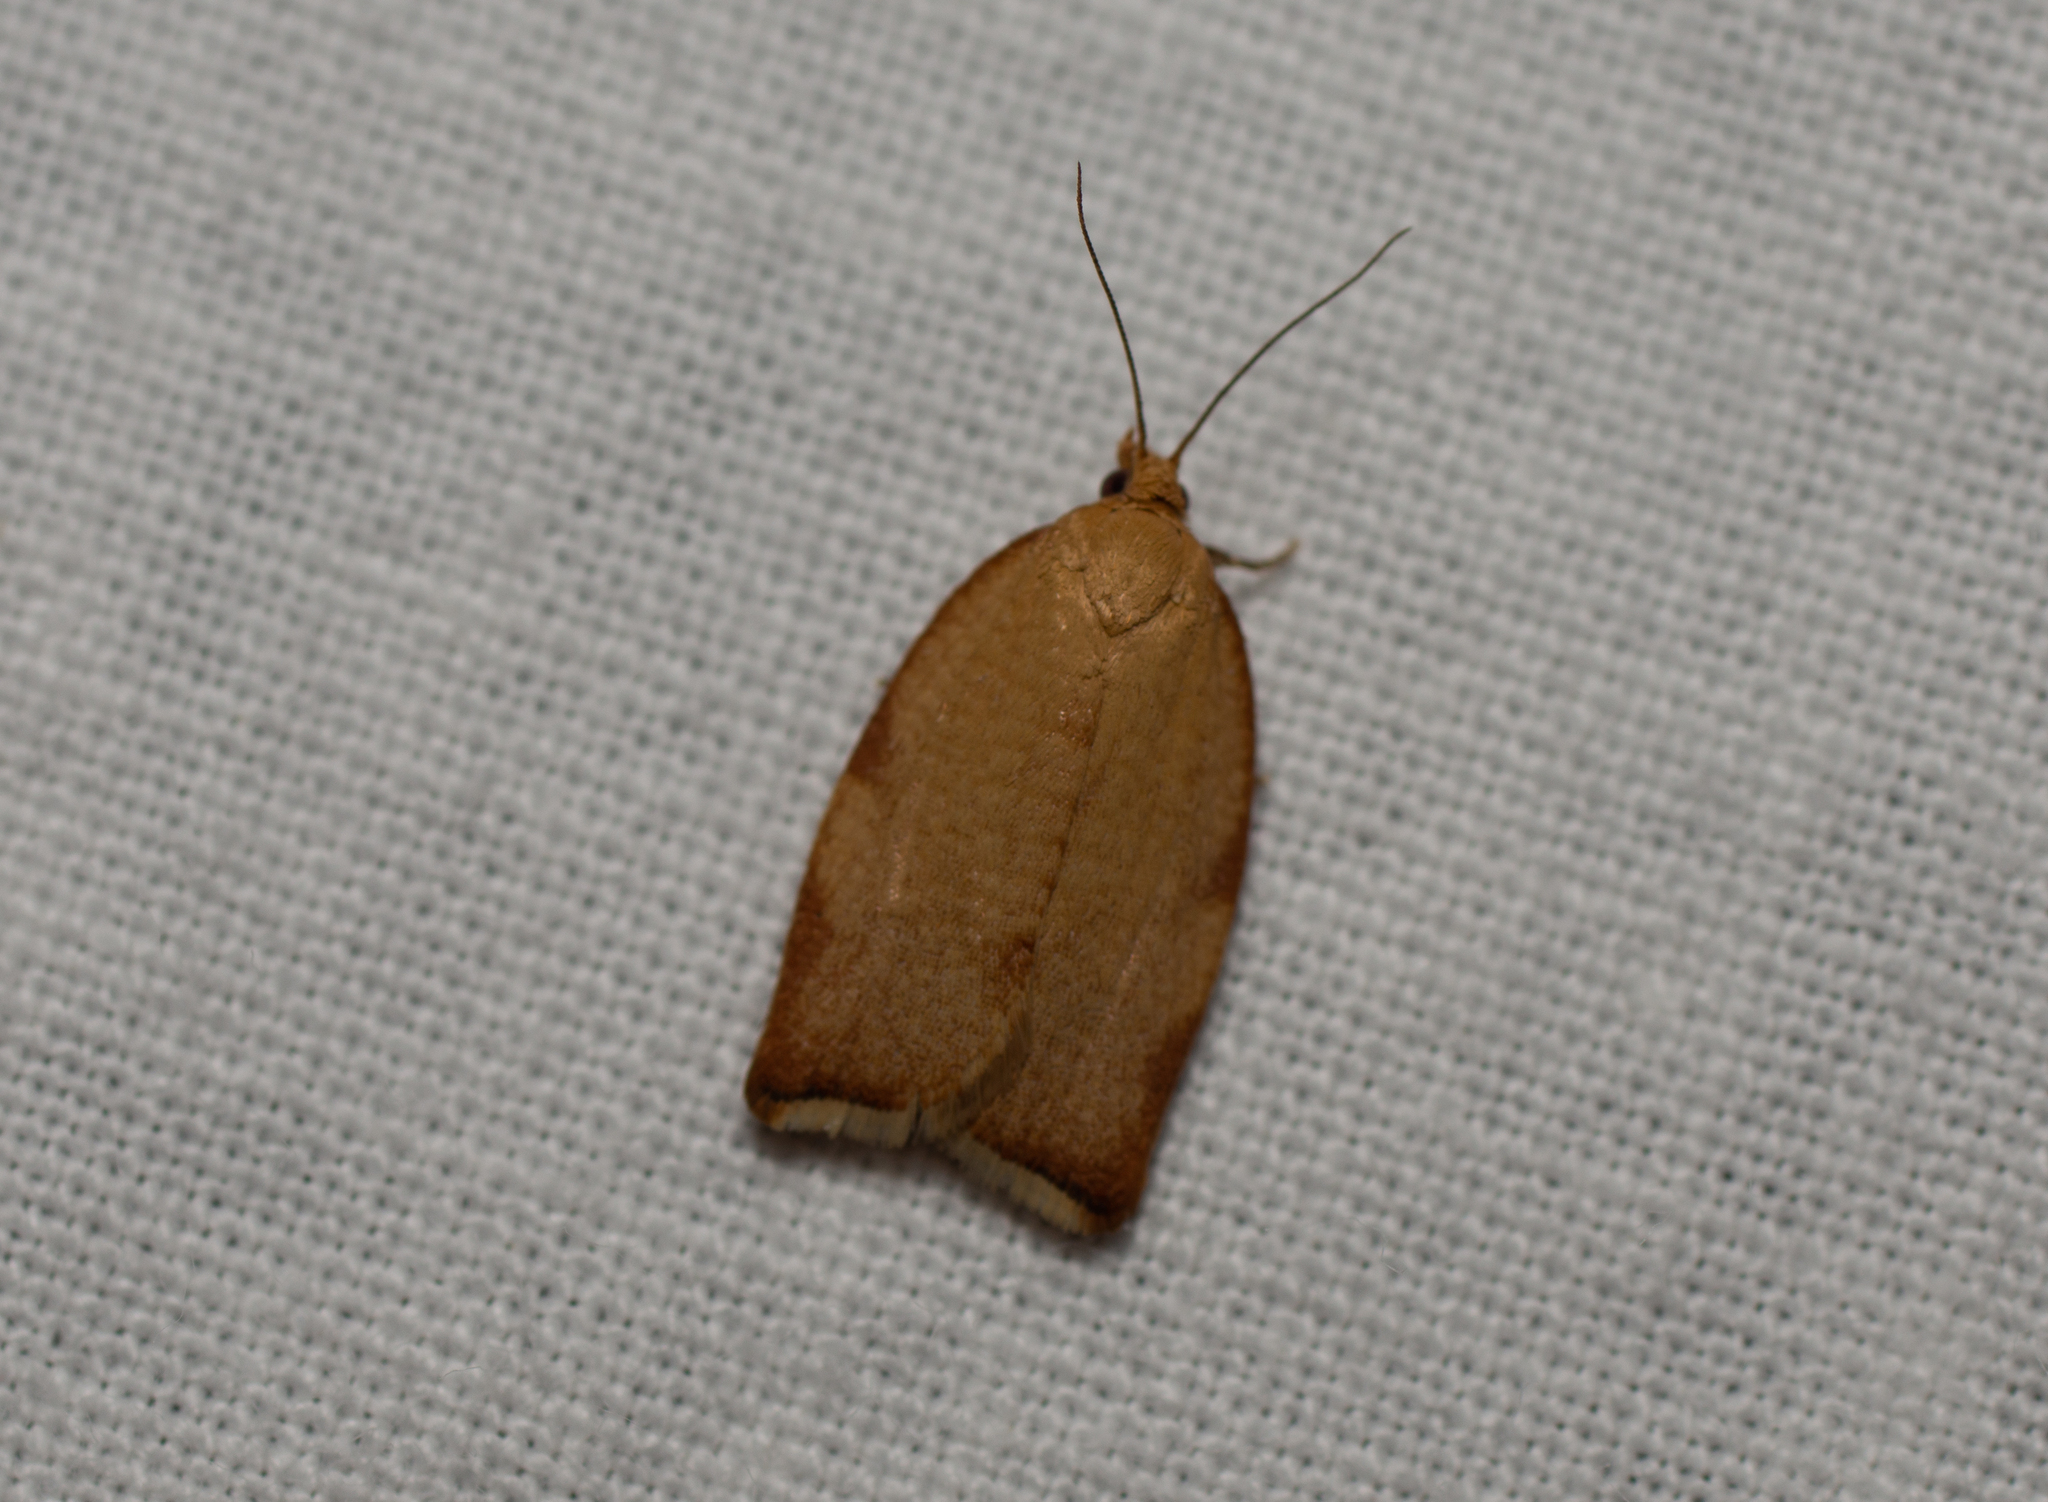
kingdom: Animalia
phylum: Arthropoda
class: Insecta
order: Lepidoptera
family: Tortricidae
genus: Clepsis
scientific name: Clepsis siciliana
